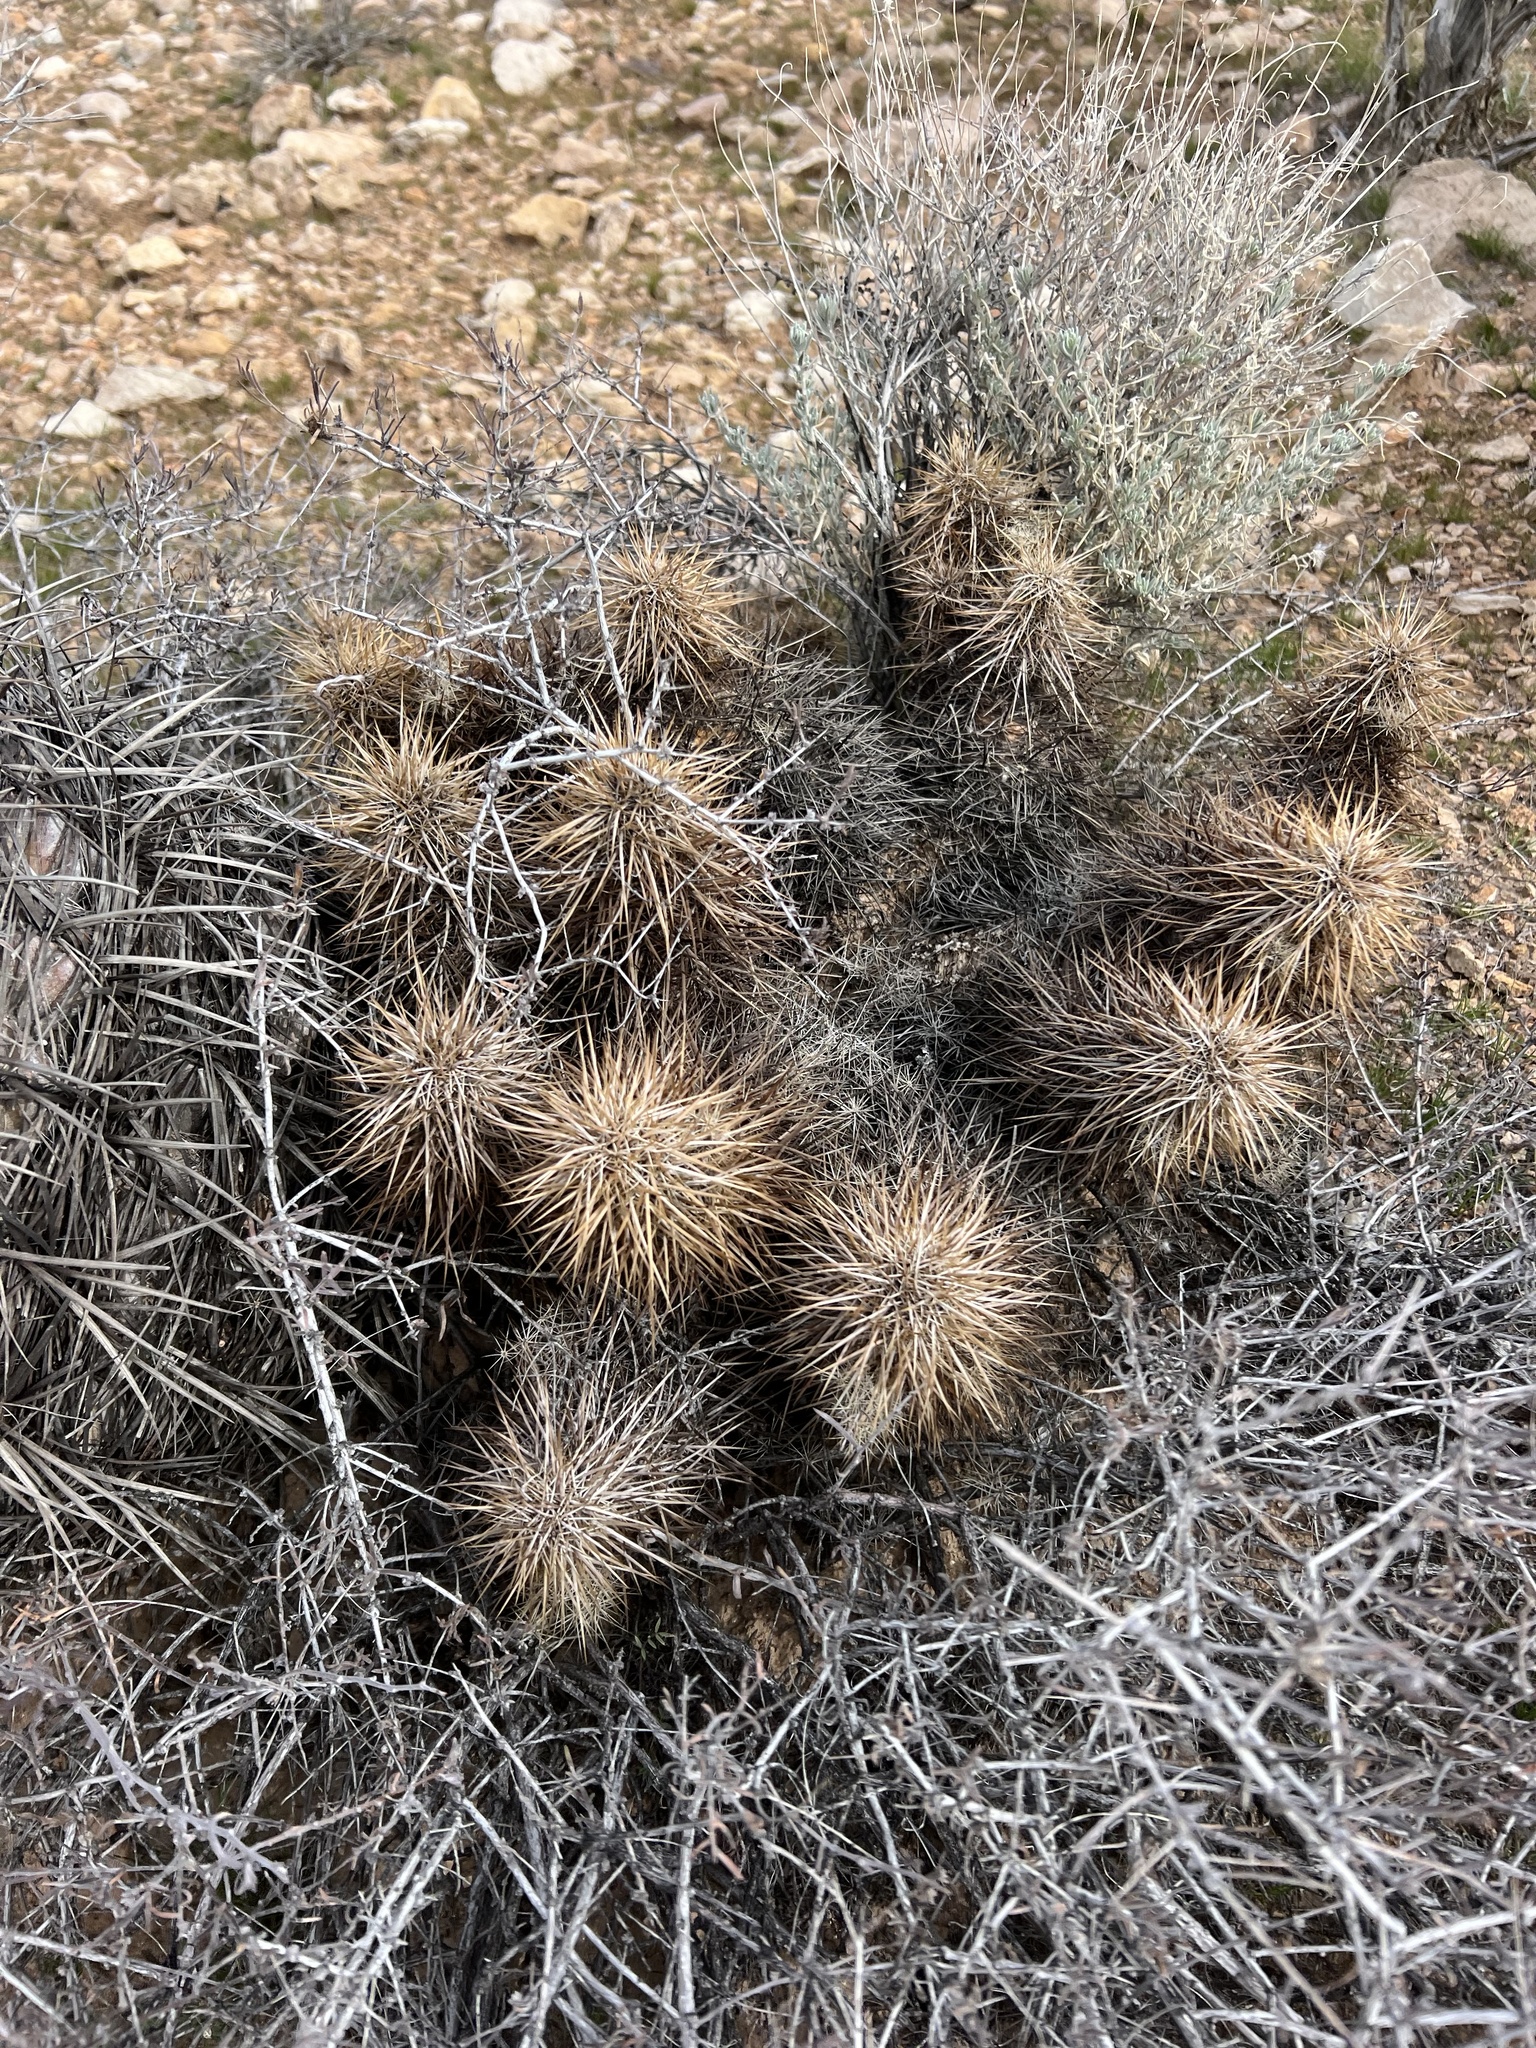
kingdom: Plantae
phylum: Tracheophyta
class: Magnoliopsida
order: Caryophyllales
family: Cactaceae
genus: Echinocereus
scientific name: Echinocereus engelmannii
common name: Engelmann's hedgehog cactus
